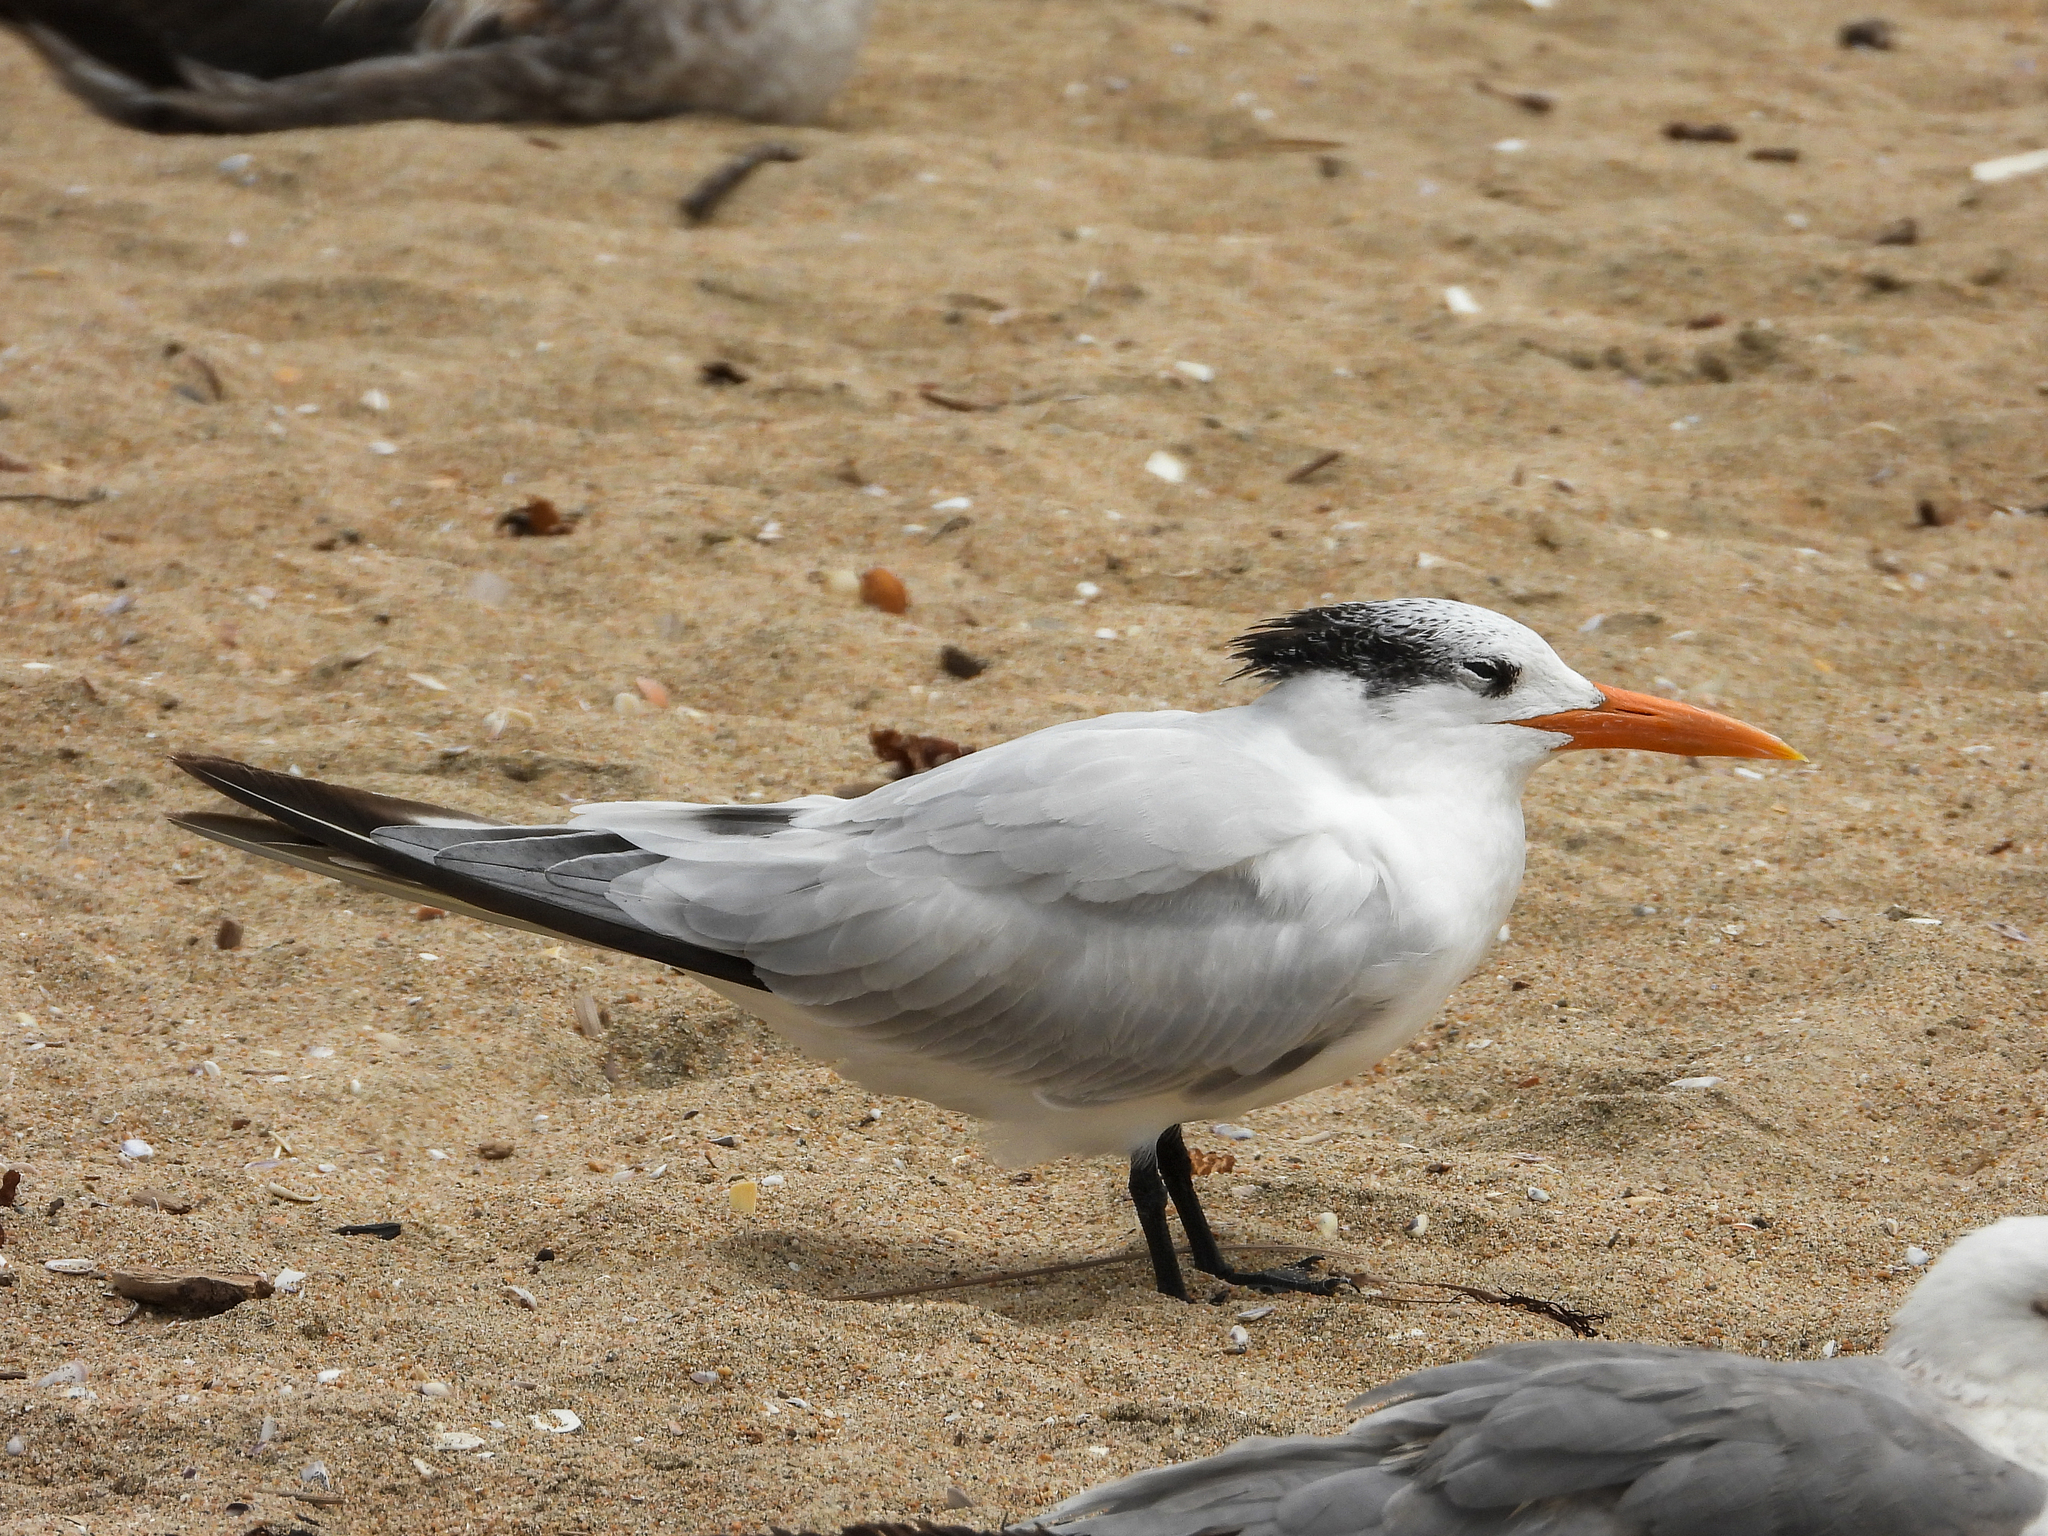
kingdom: Animalia
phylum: Chordata
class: Aves
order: Charadriiformes
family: Laridae
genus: Thalasseus
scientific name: Thalasseus maximus
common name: Royal tern
